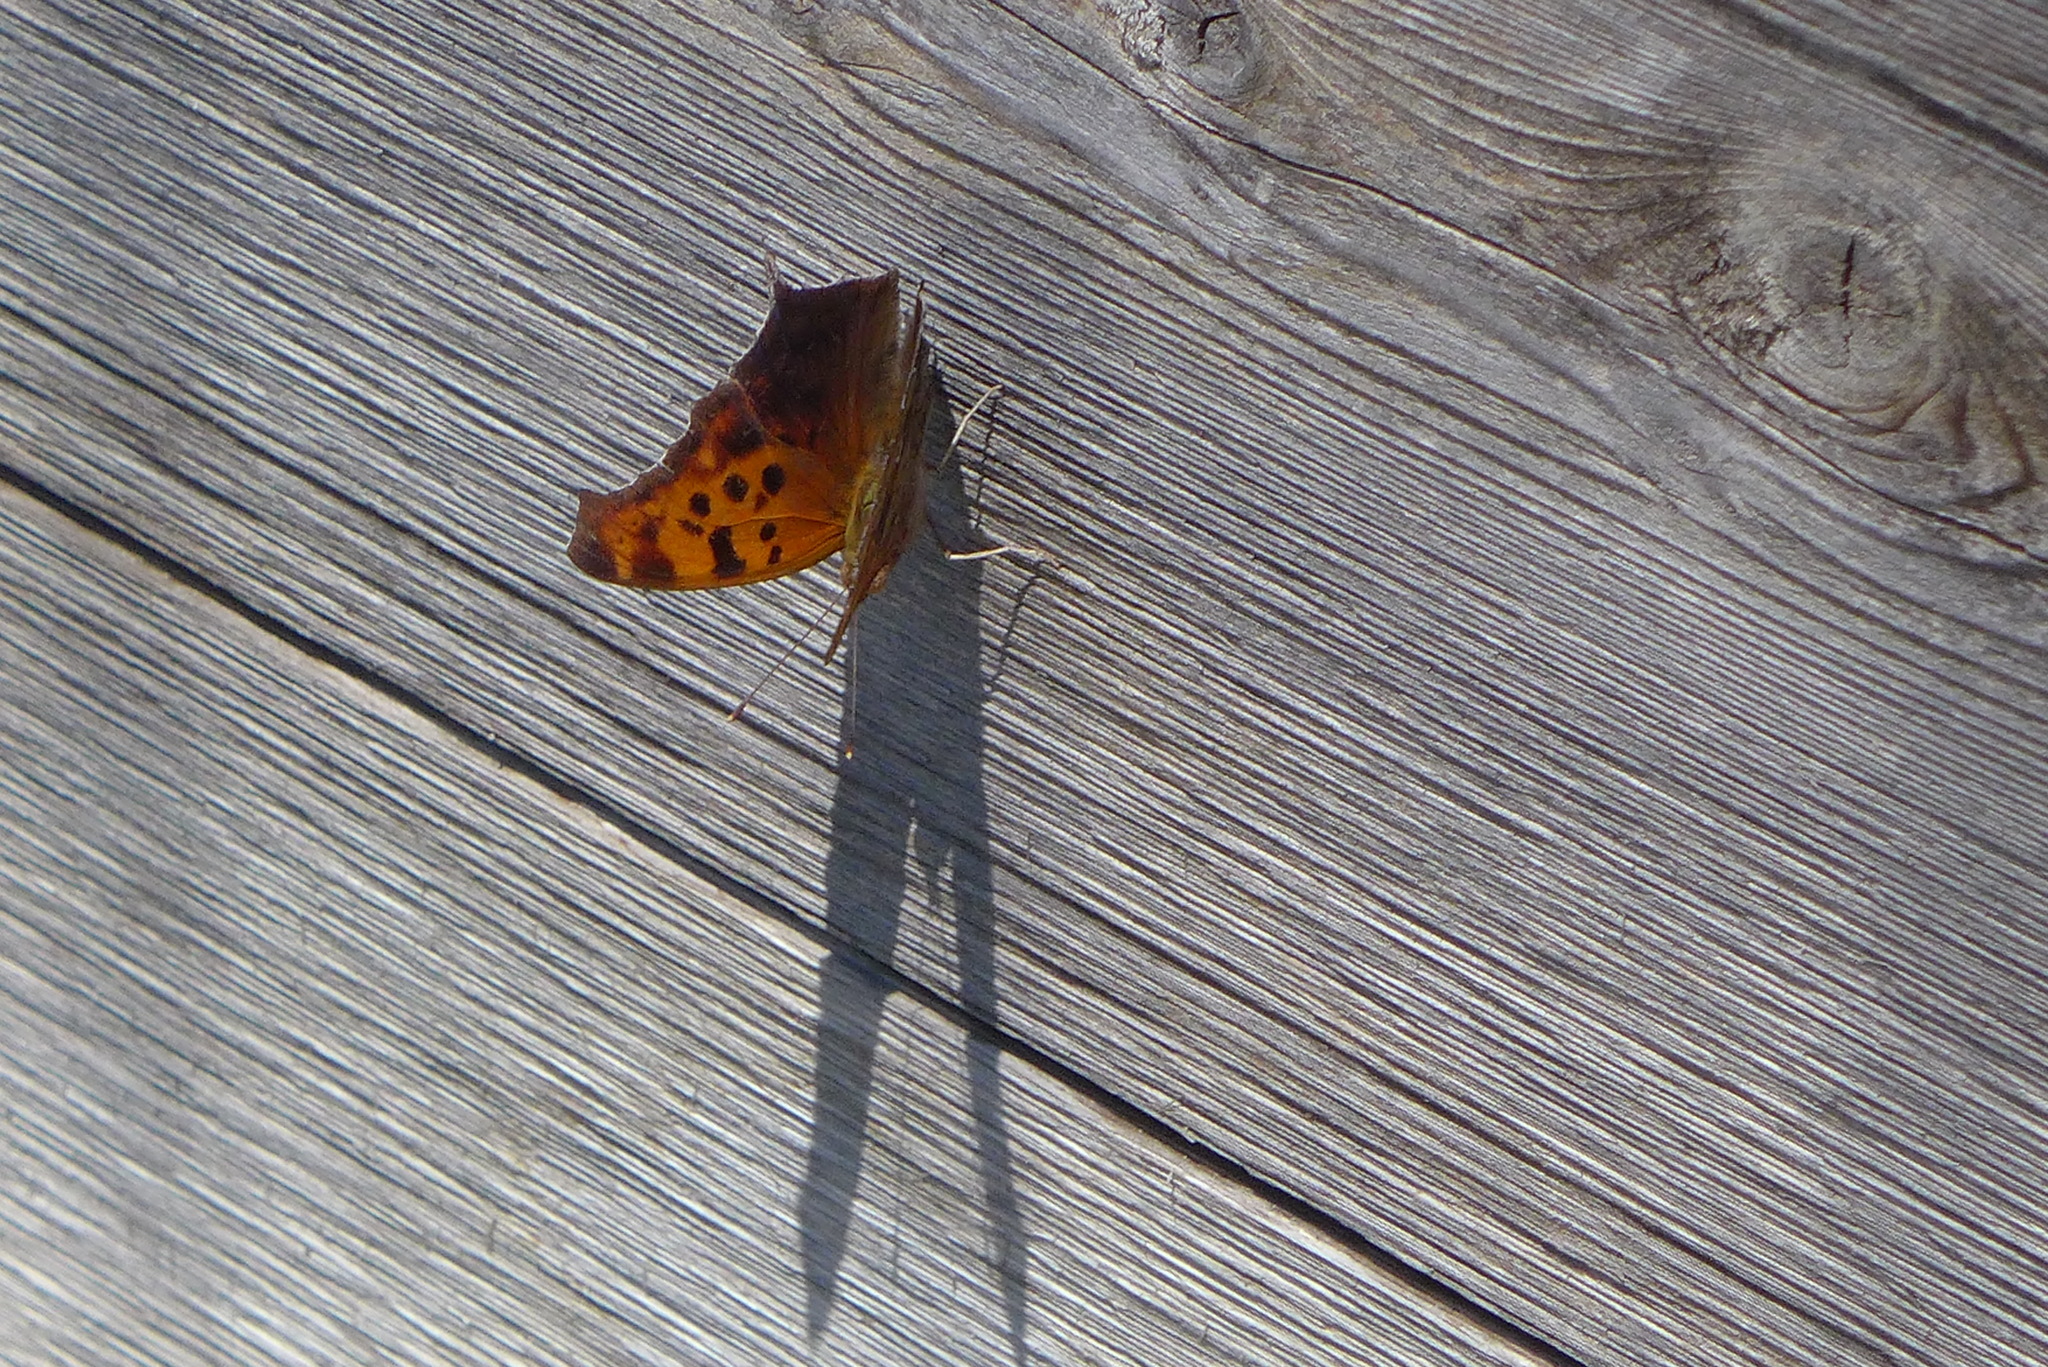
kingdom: Animalia
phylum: Arthropoda
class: Insecta
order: Lepidoptera
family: Nymphalidae
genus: Polygonia
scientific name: Polygonia interrogationis
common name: Question mark
